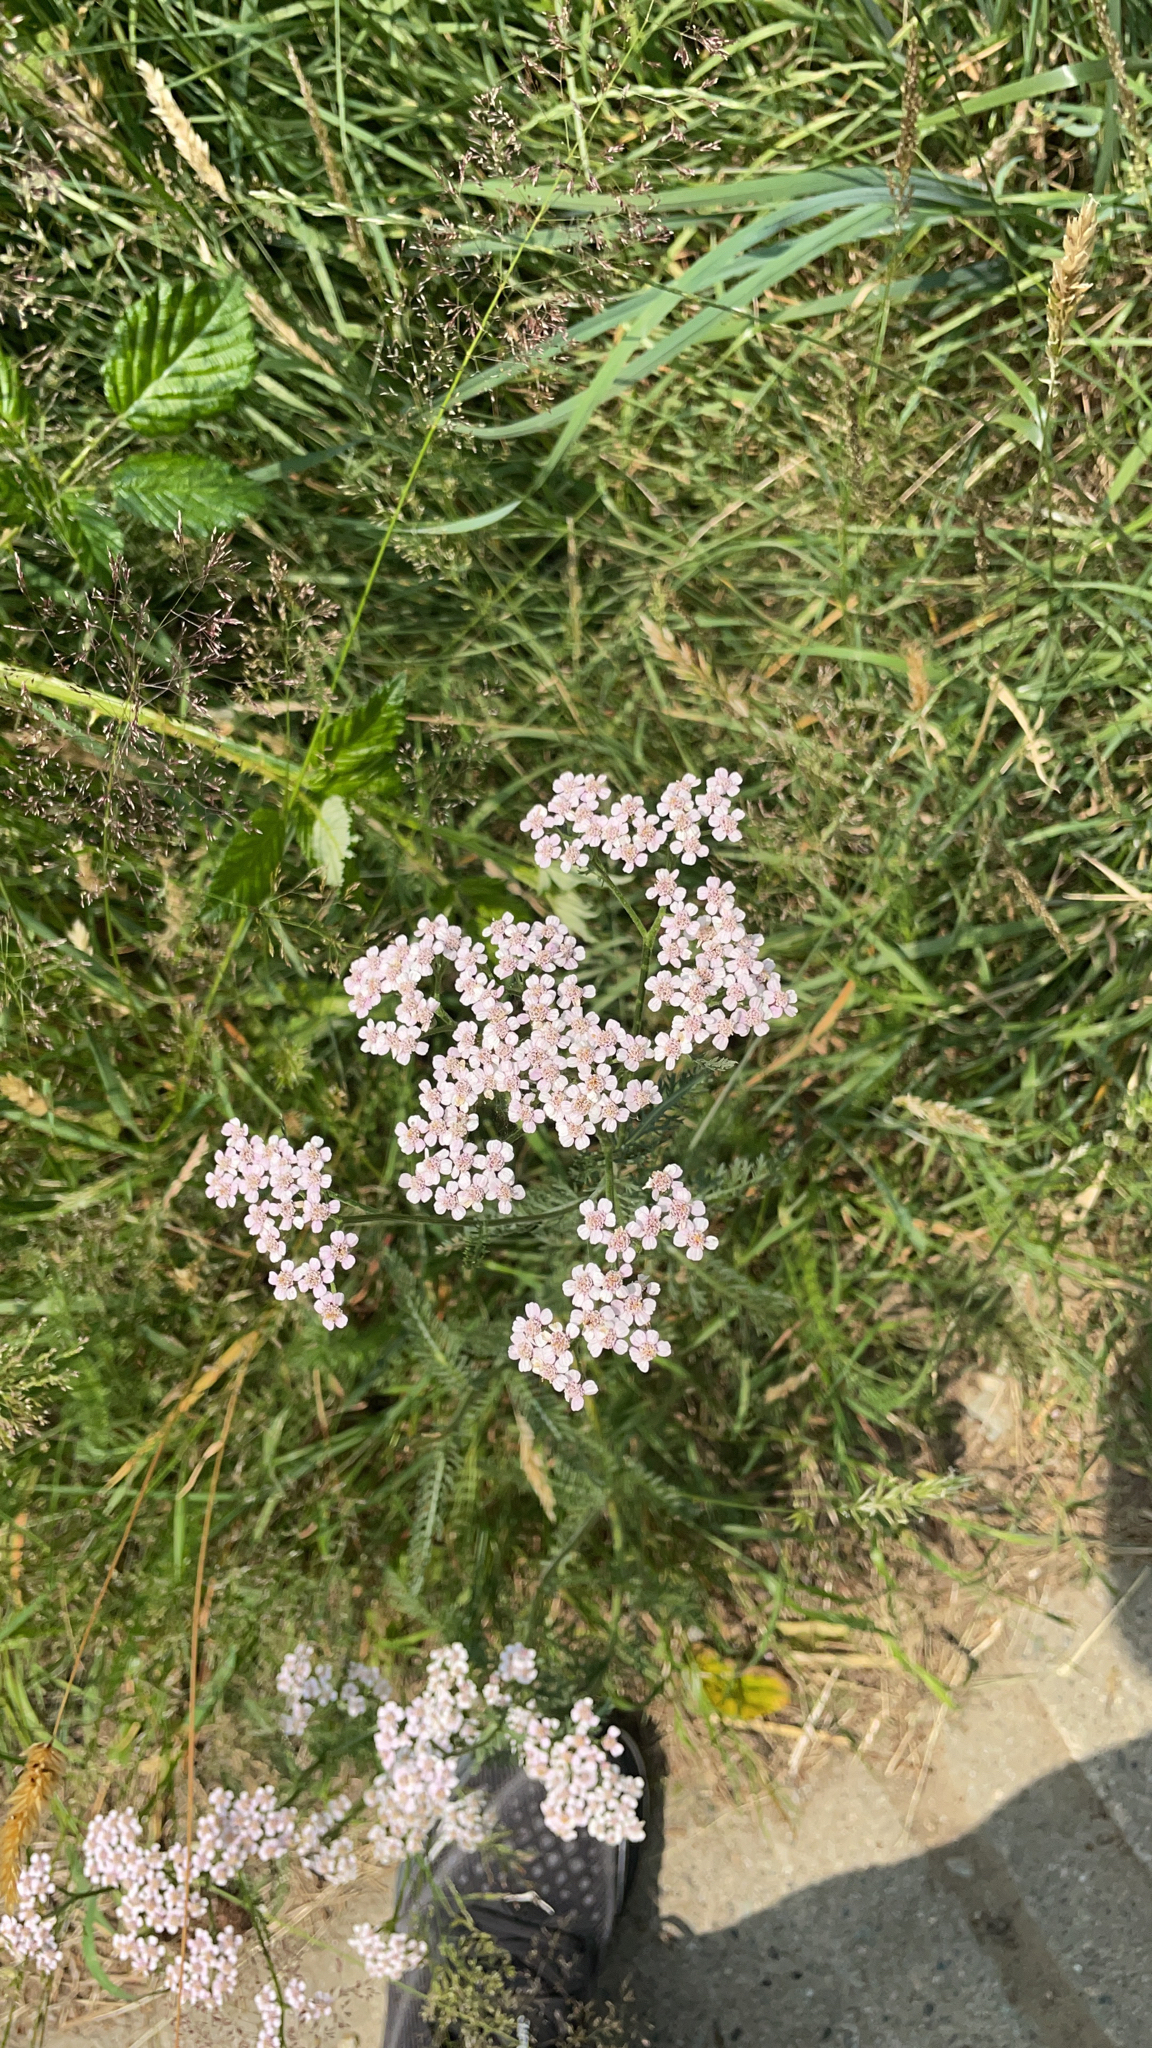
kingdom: Plantae
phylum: Tracheophyta
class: Magnoliopsida
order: Asterales
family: Asteraceae
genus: Achillea
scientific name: Achillea millefolium
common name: Yarrow
